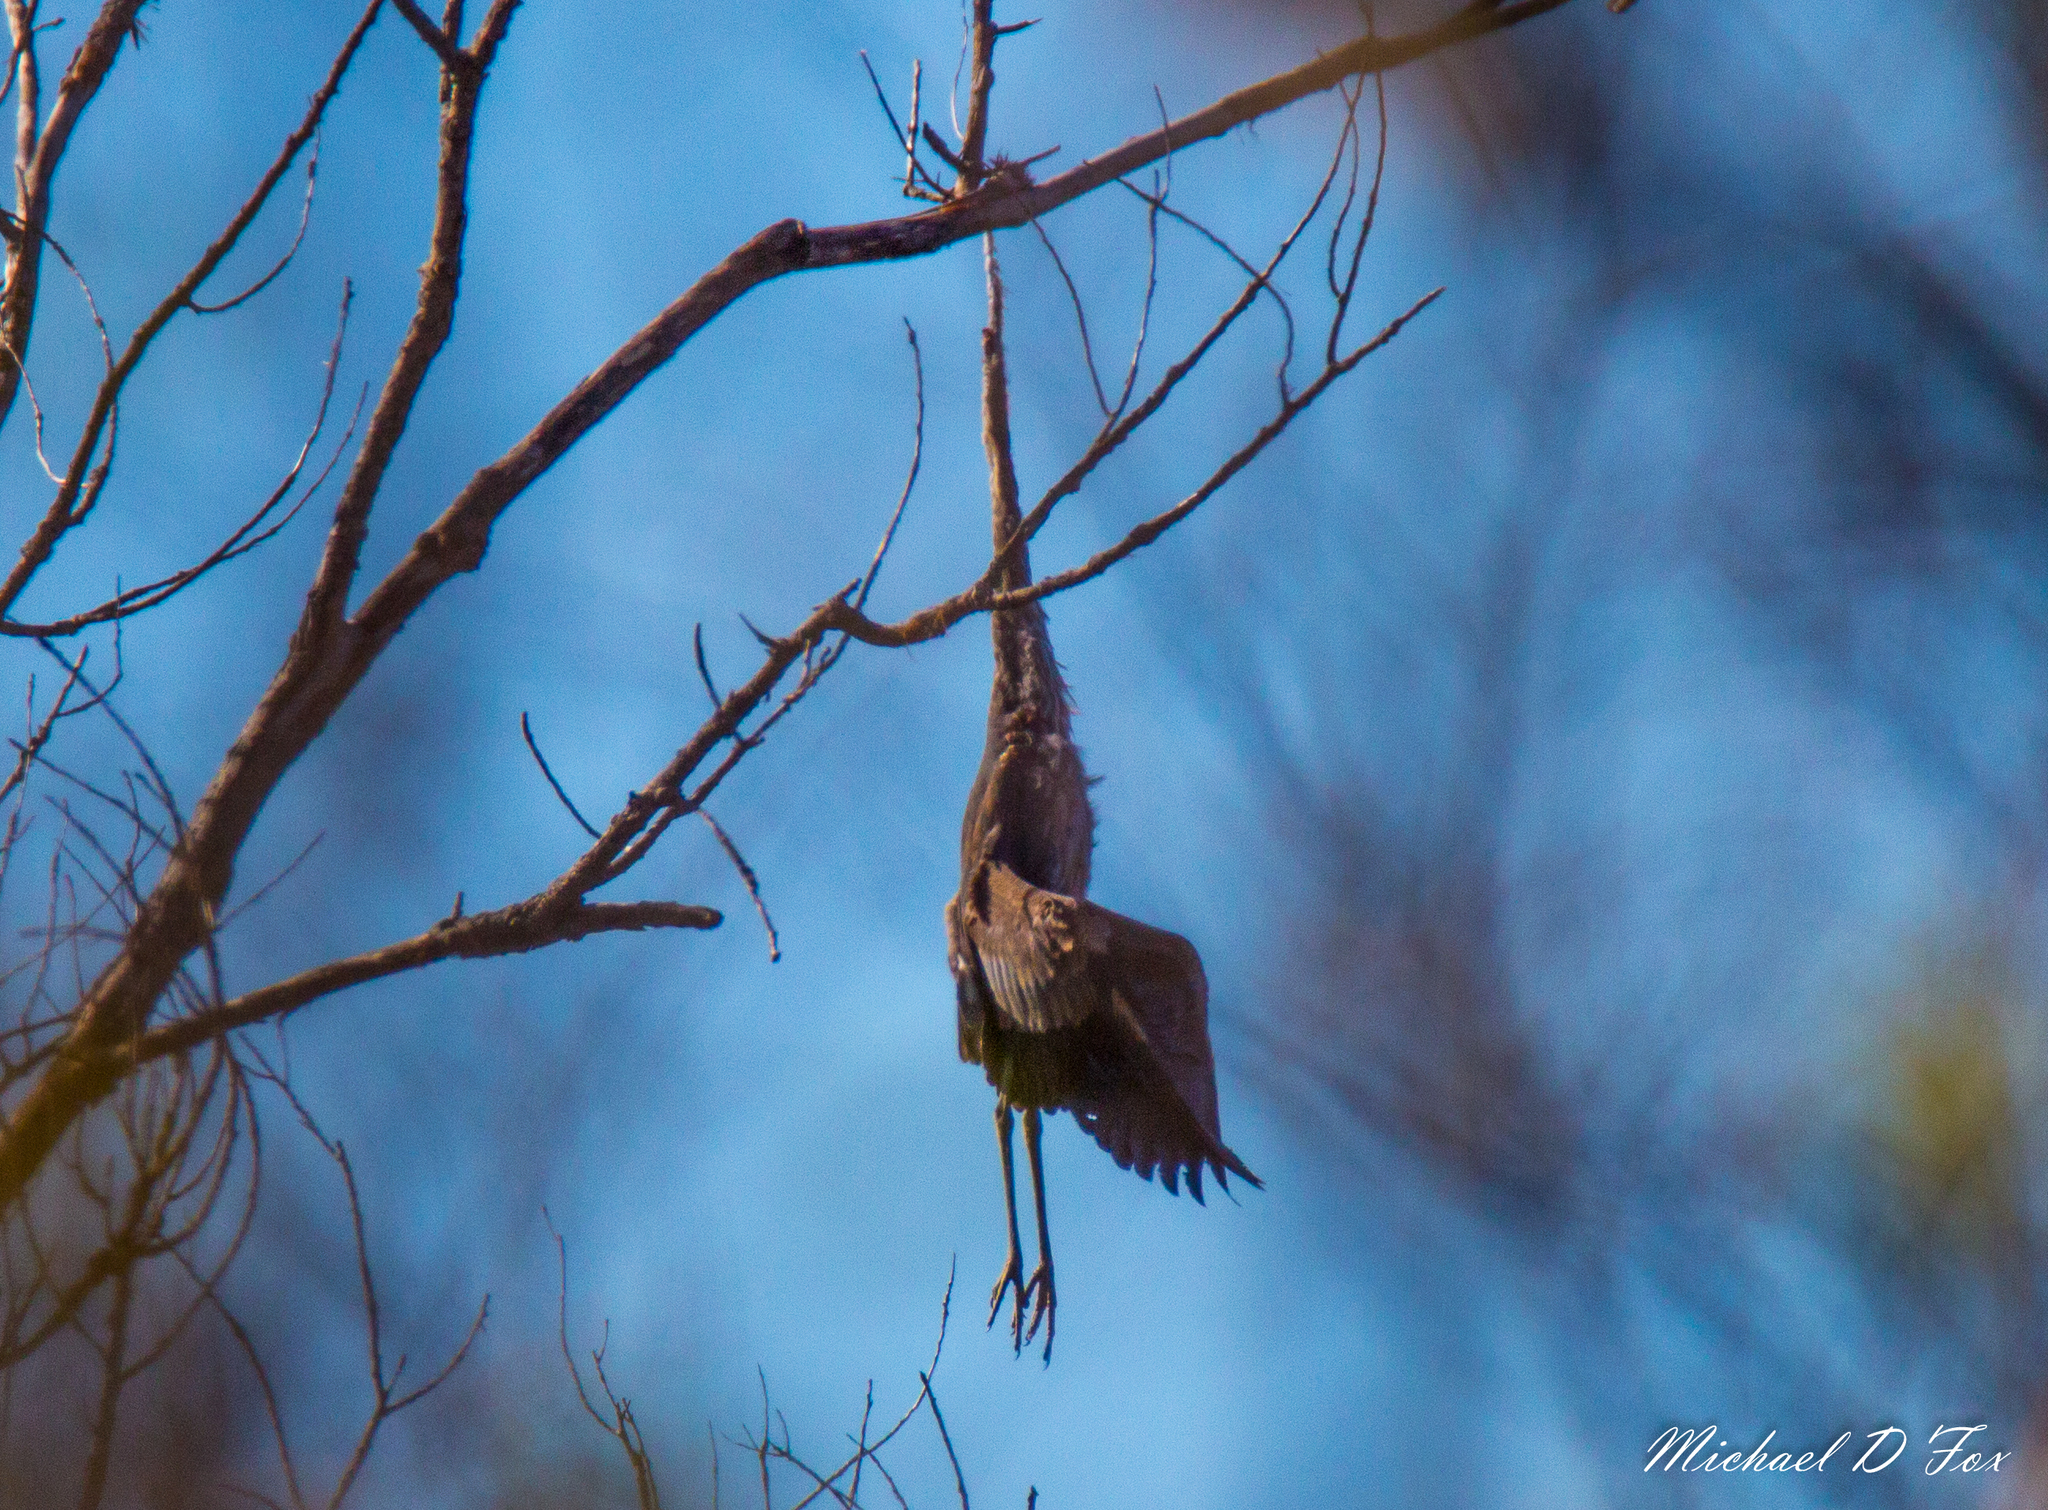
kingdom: Animalia
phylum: Chordata
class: Aves
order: Pelecaniformes
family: Ardeidae
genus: Ardea
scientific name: Ardea herodias
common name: Great blue heron
